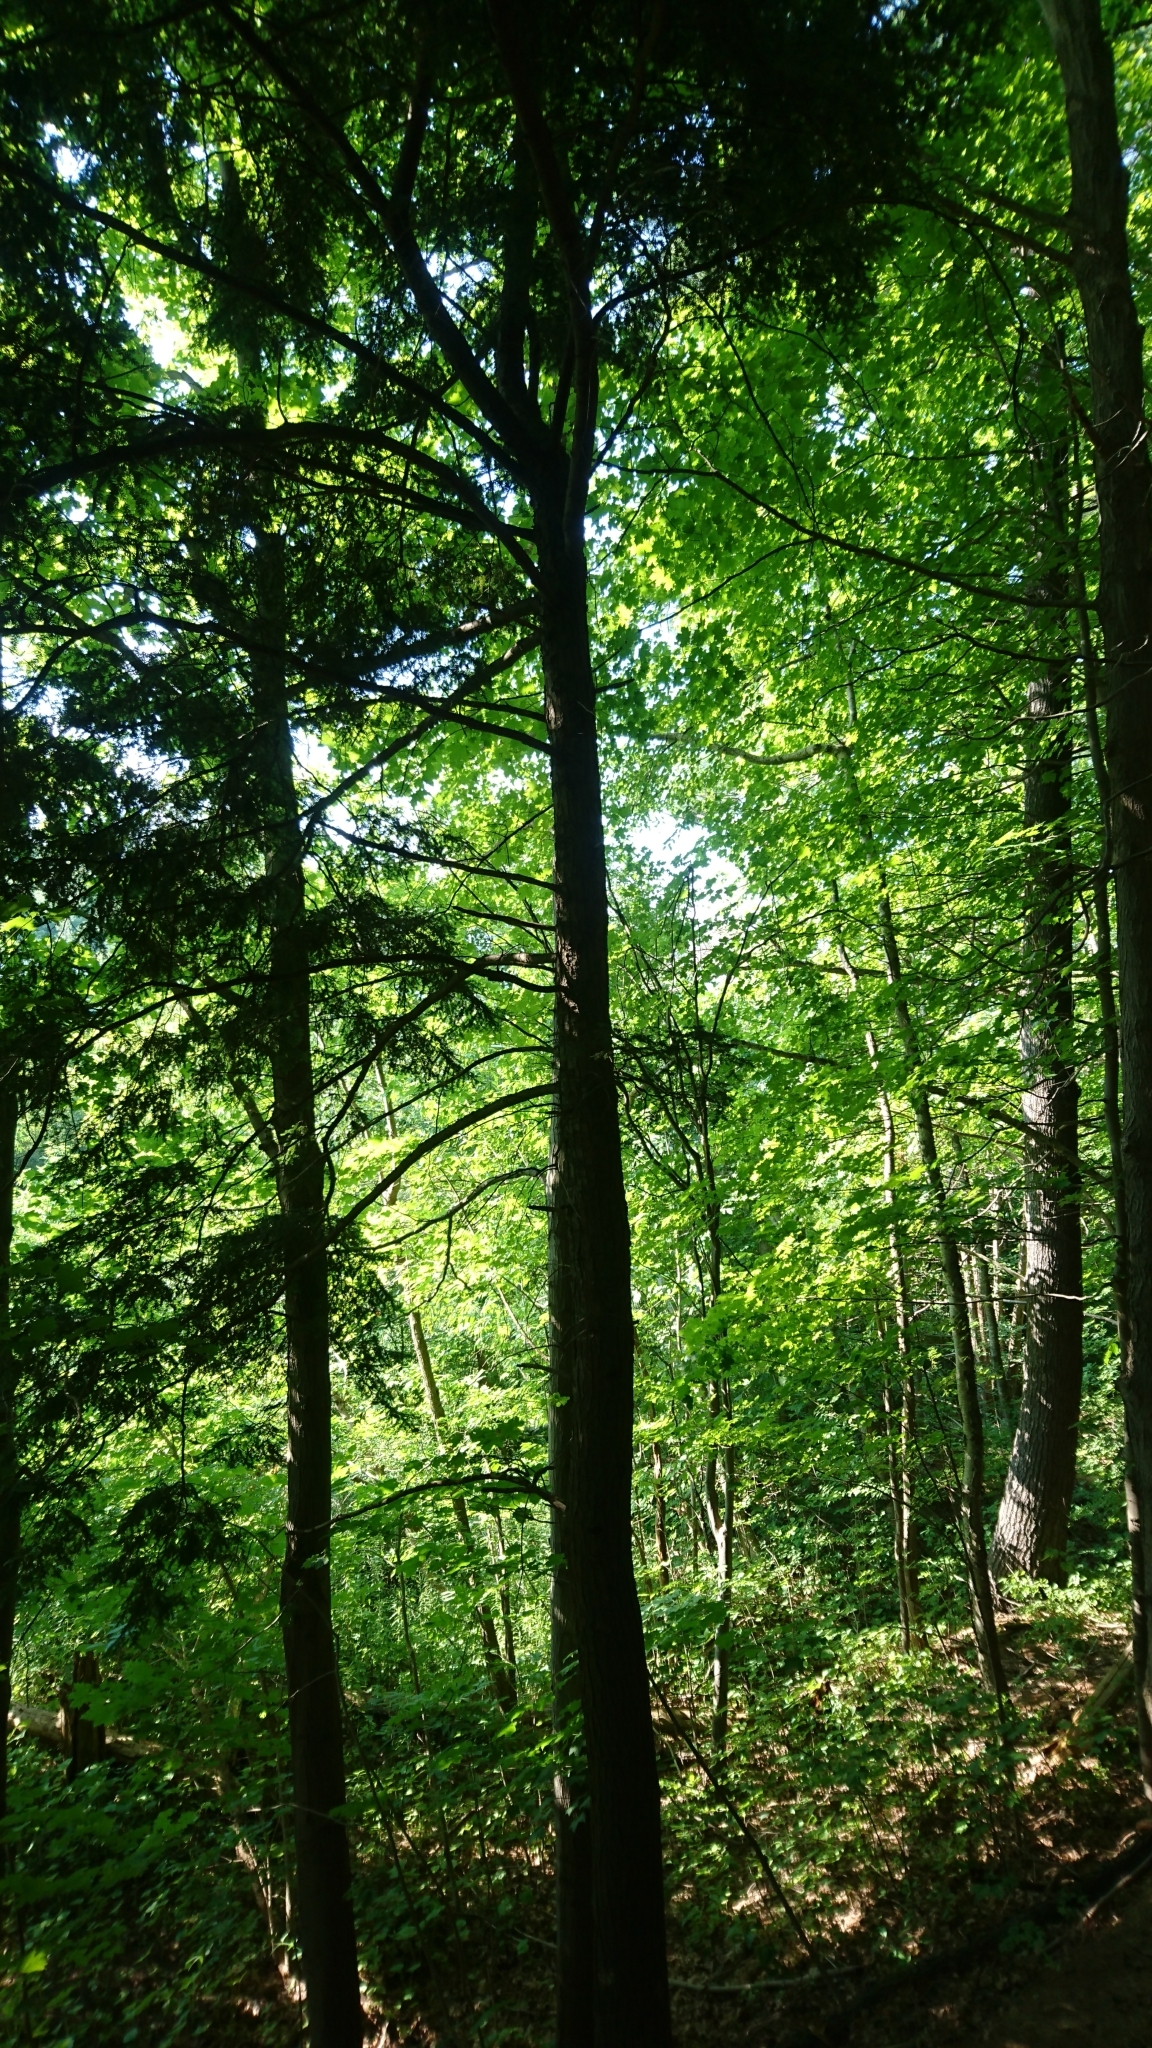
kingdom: Plantae
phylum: Tracheophyta
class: Pinopsida
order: Pinales
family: Pinaceae
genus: Tsuga
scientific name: Tsuga canadensis
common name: Eastern hemlock
